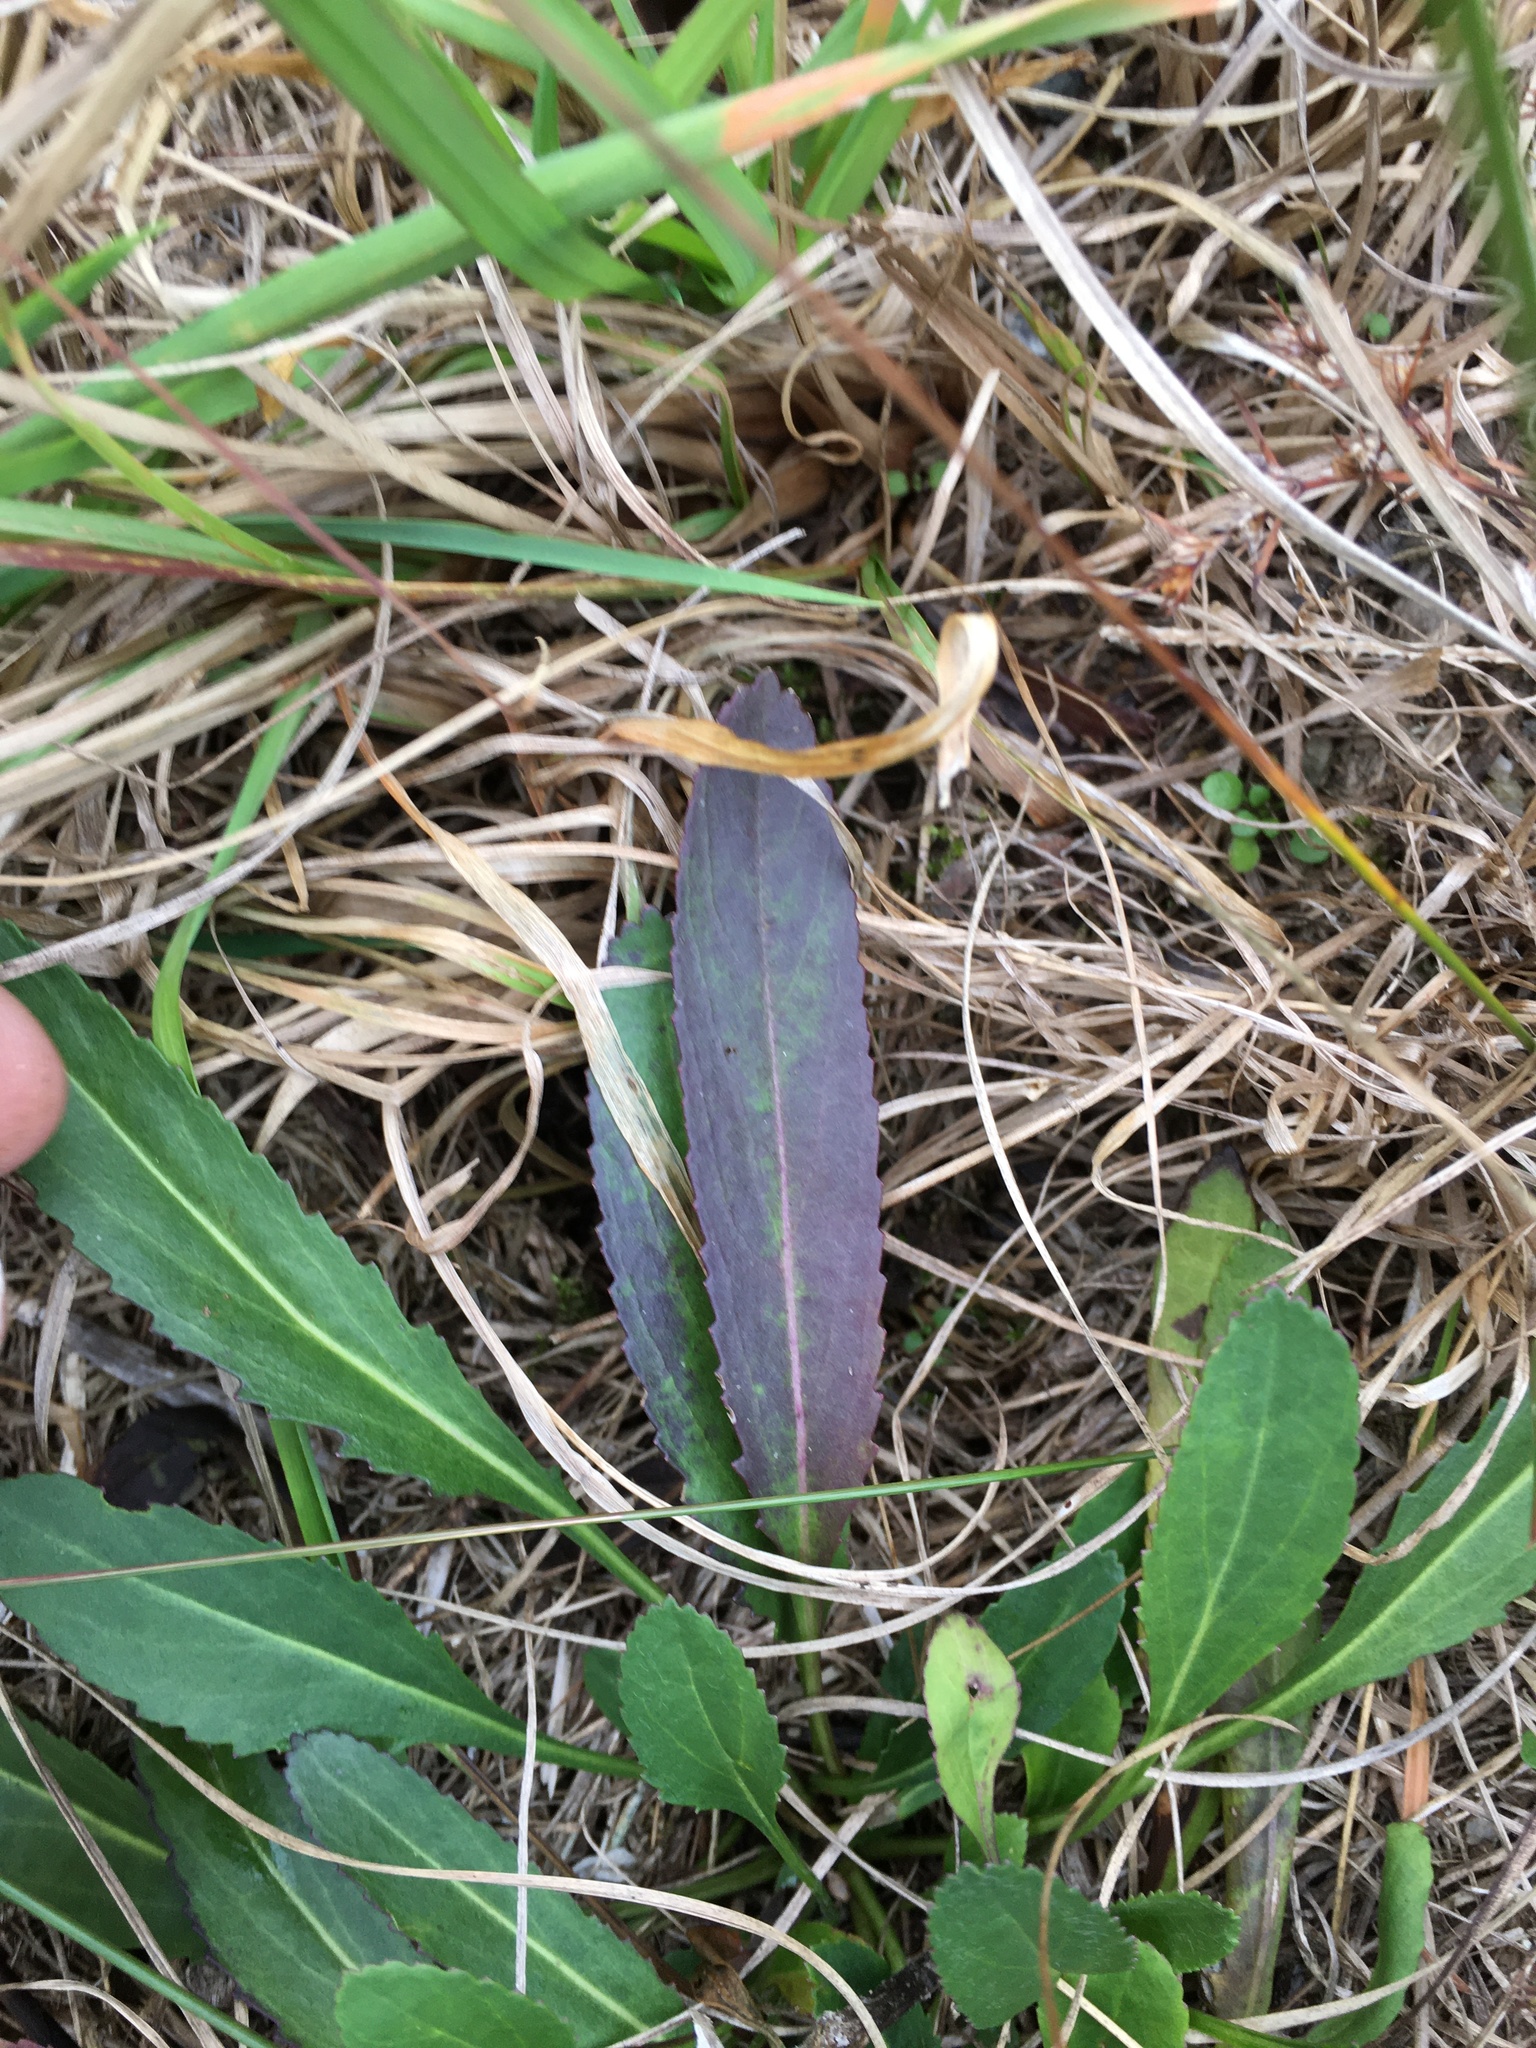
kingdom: Plantae
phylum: Tracheophyta
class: Magnoliopsida
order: Asterales
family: Asteraceae
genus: Packera
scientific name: Packera anonyma
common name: Small ragwort
